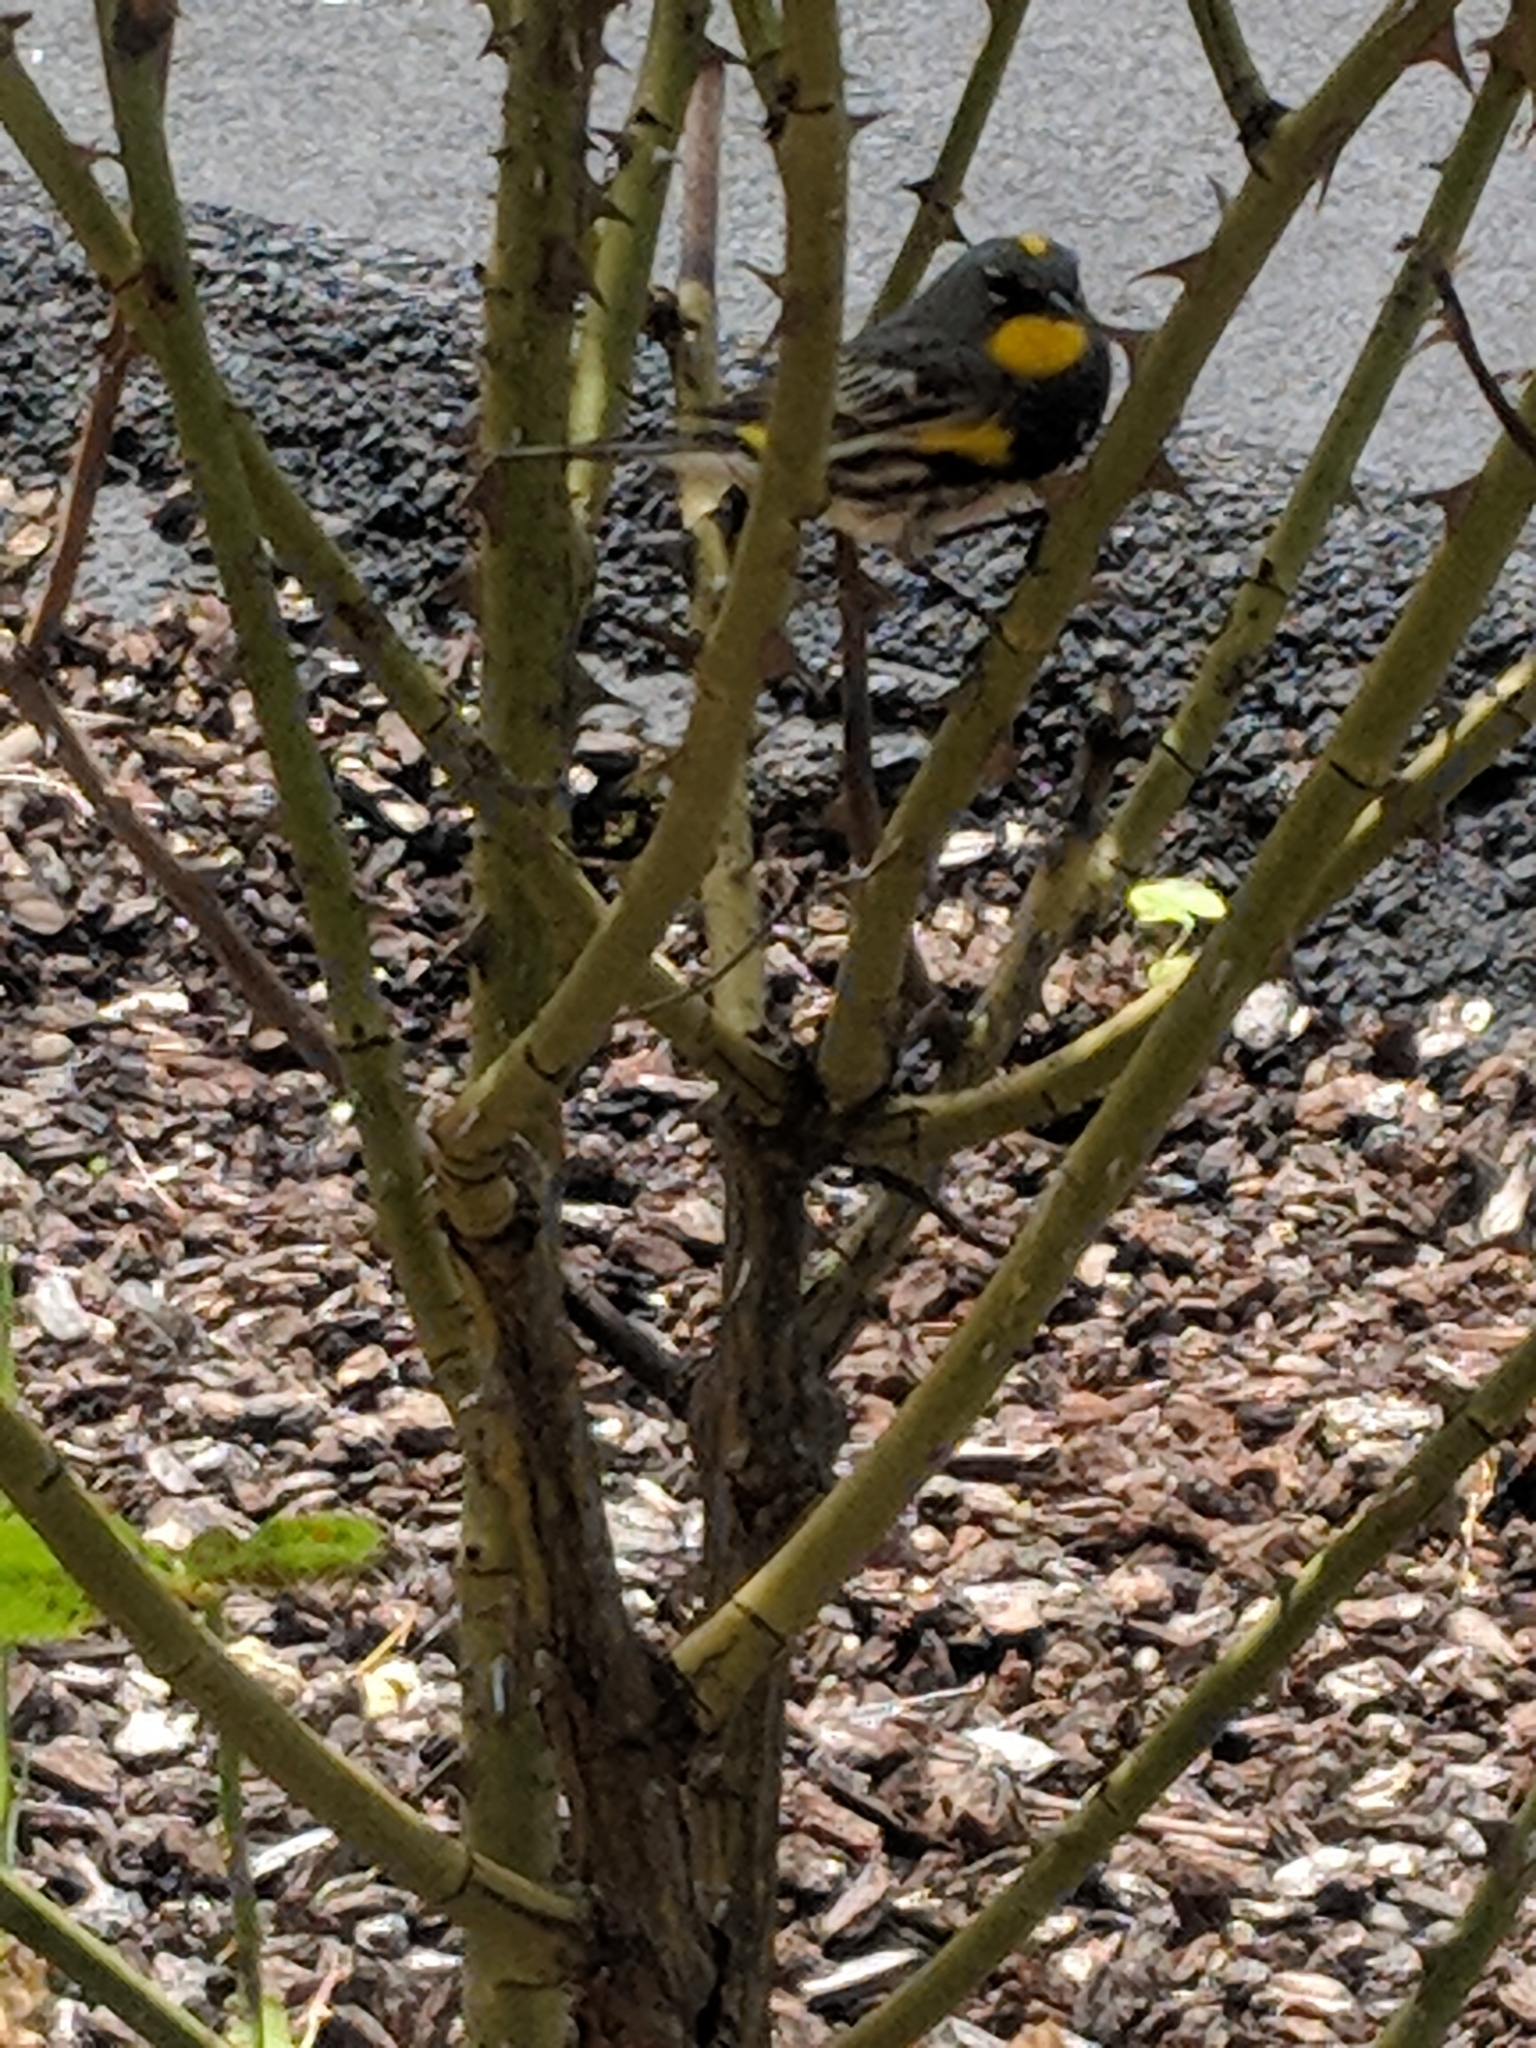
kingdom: Animalia
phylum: Chordata
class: Aves
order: Passeriformes
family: Parulidae
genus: Setophaga
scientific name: Setophaga coronata
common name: Myrtle warbler
